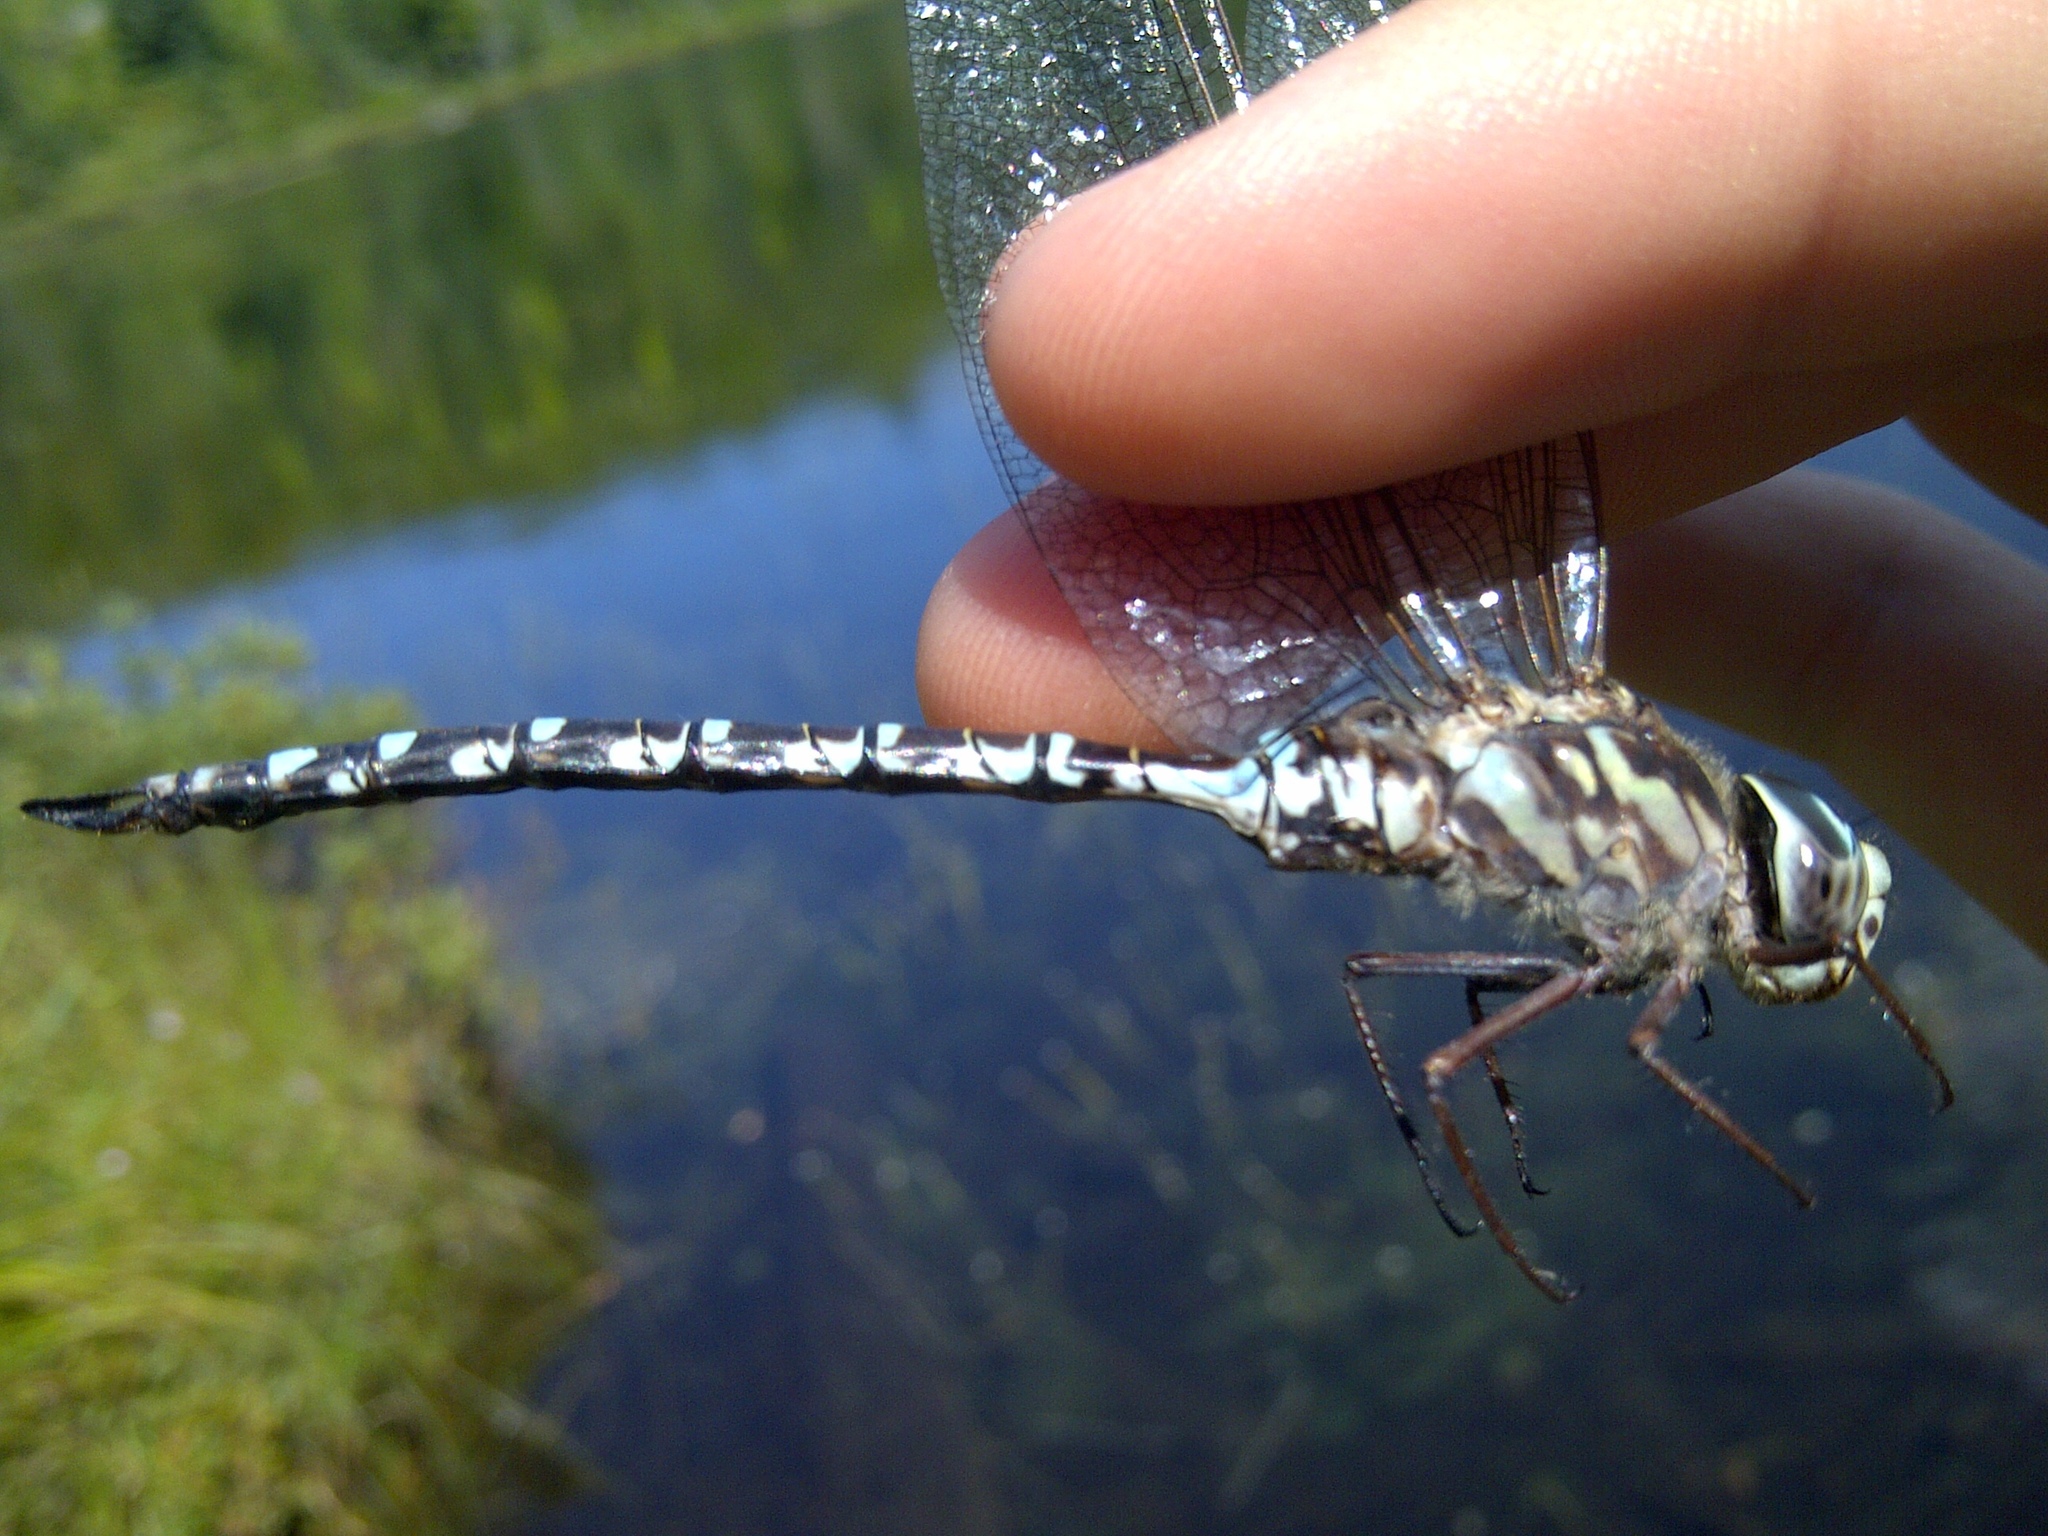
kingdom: Animalia
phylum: Arthropoda
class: Insecta
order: Odonata
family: Aeshnidae
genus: Aeshna
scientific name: Aeshna clepsydra
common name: Mottled darner
